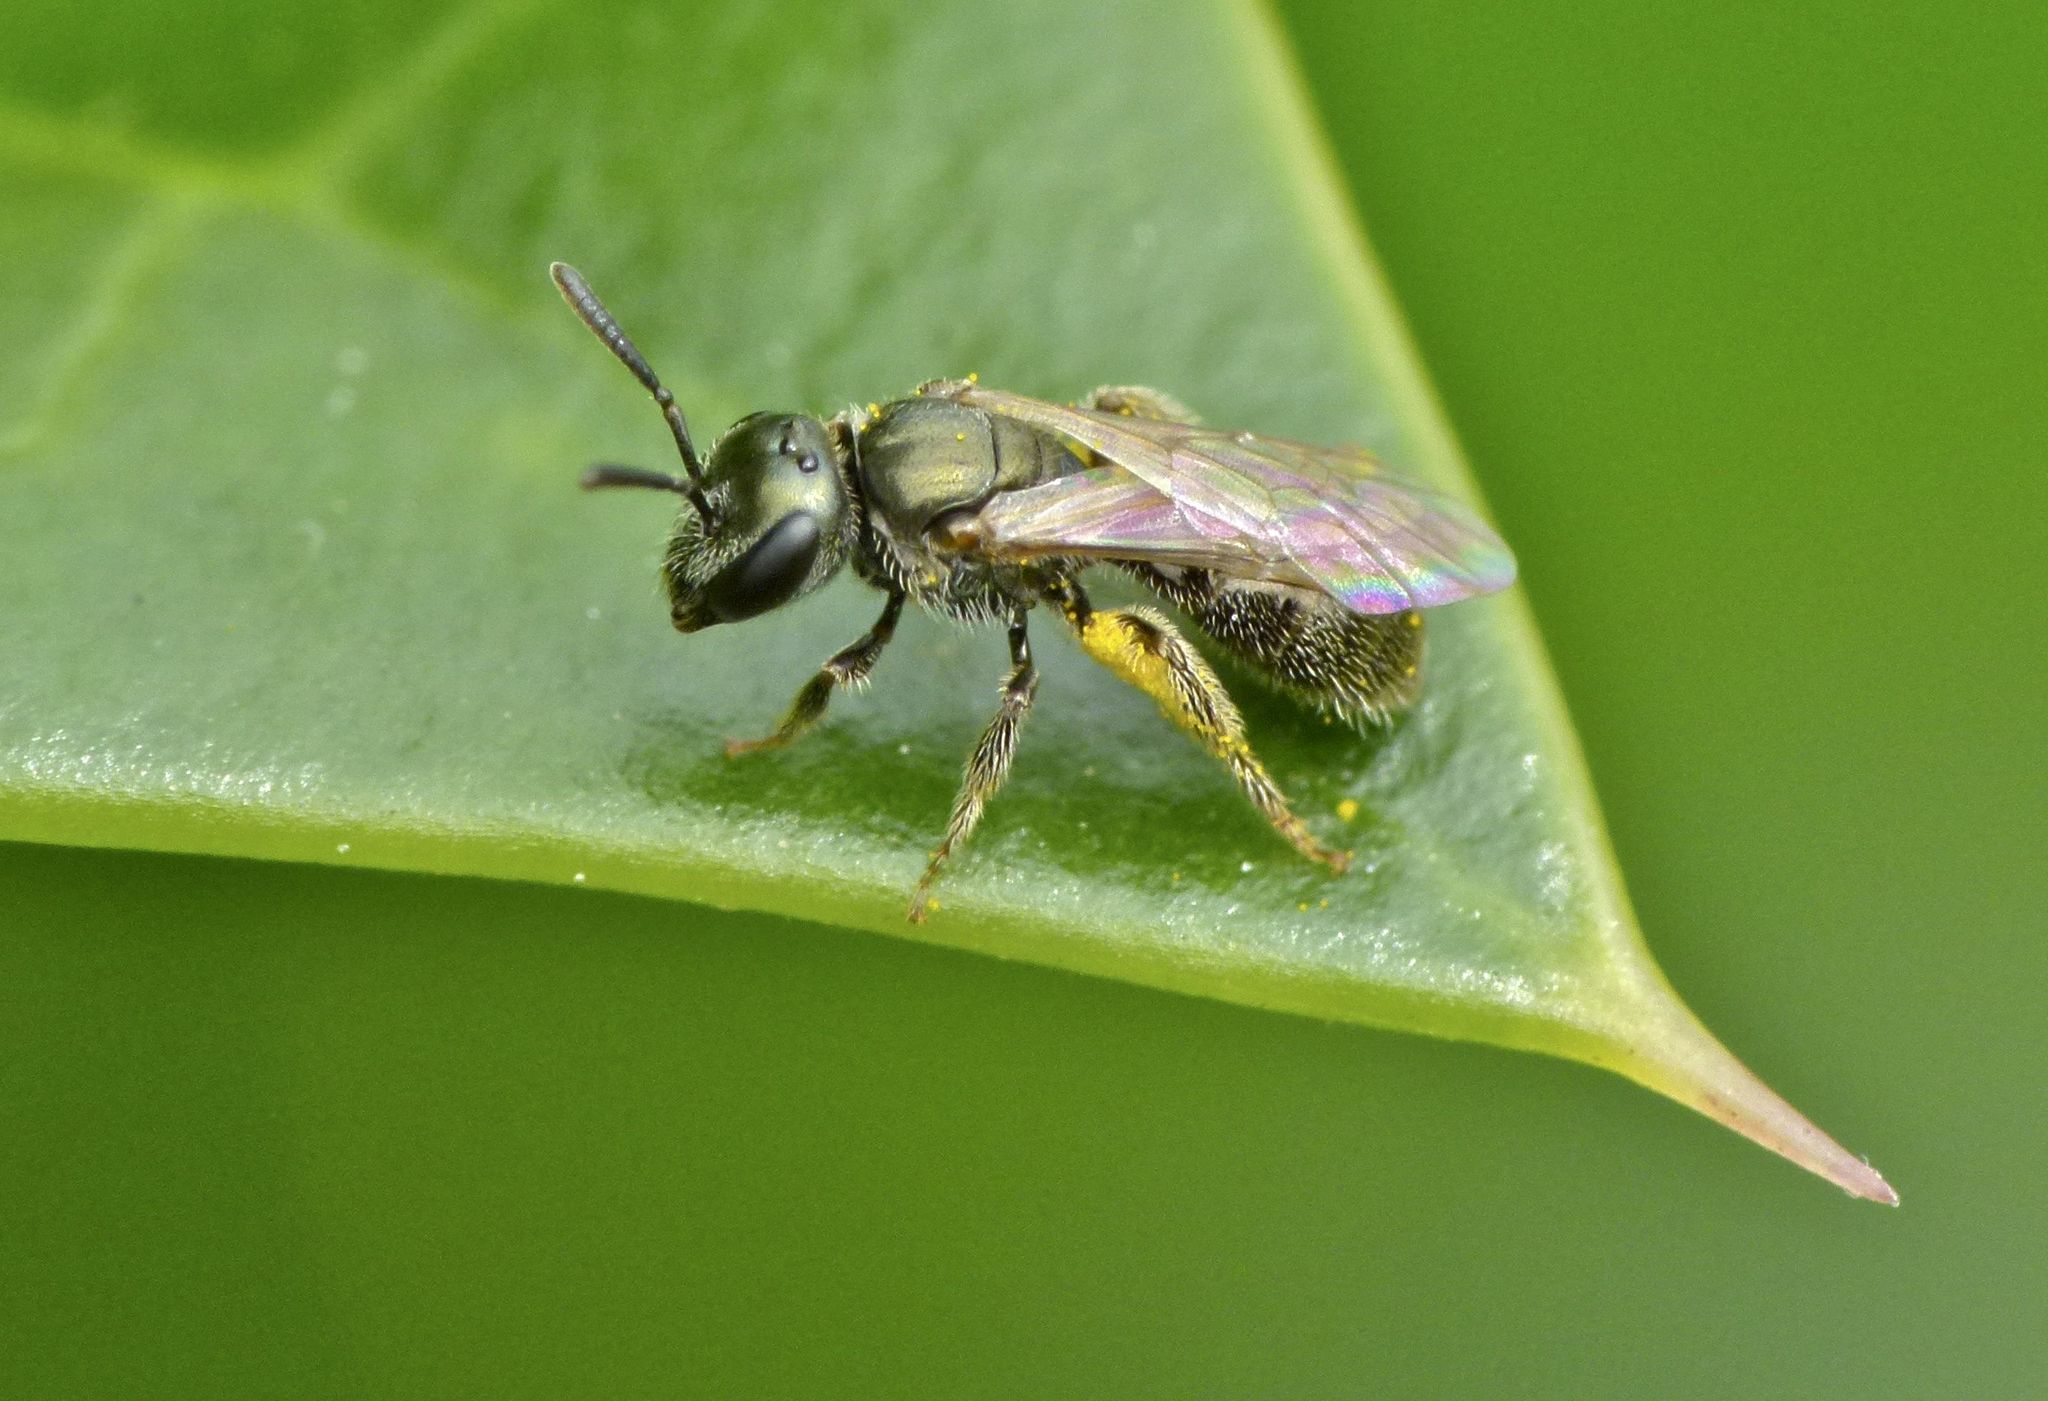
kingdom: Animalia
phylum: Arthropoda
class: Insecta
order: Hymenoptera
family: Halictidae
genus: Lasioglossum
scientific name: Lasioglossum imitatum
